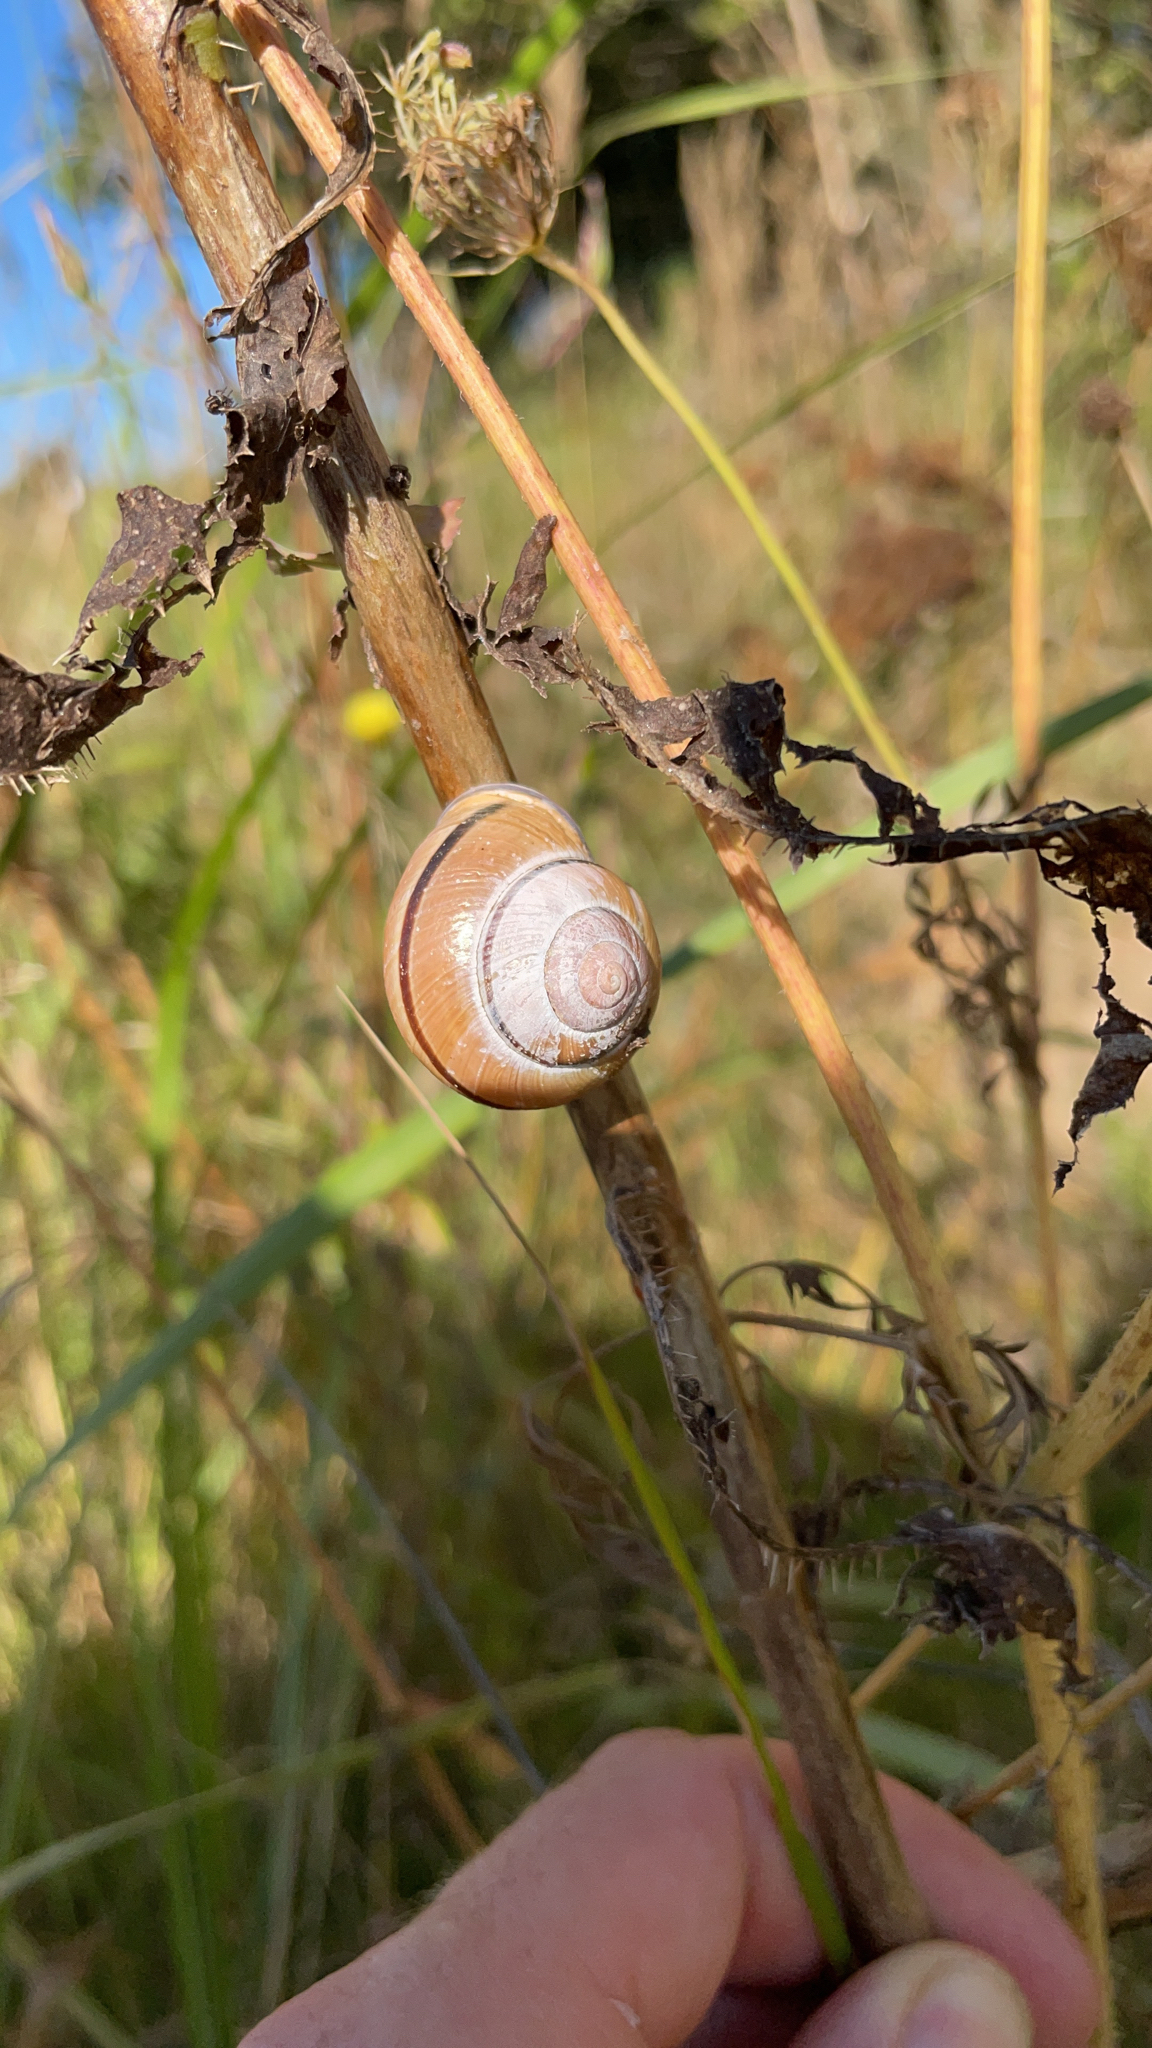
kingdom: Animalia
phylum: Mollusca
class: Gastropoda
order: Stylommatophora
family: Helicidae
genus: Cepaea
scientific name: Cepaea nemoralis
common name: Grovesnail
